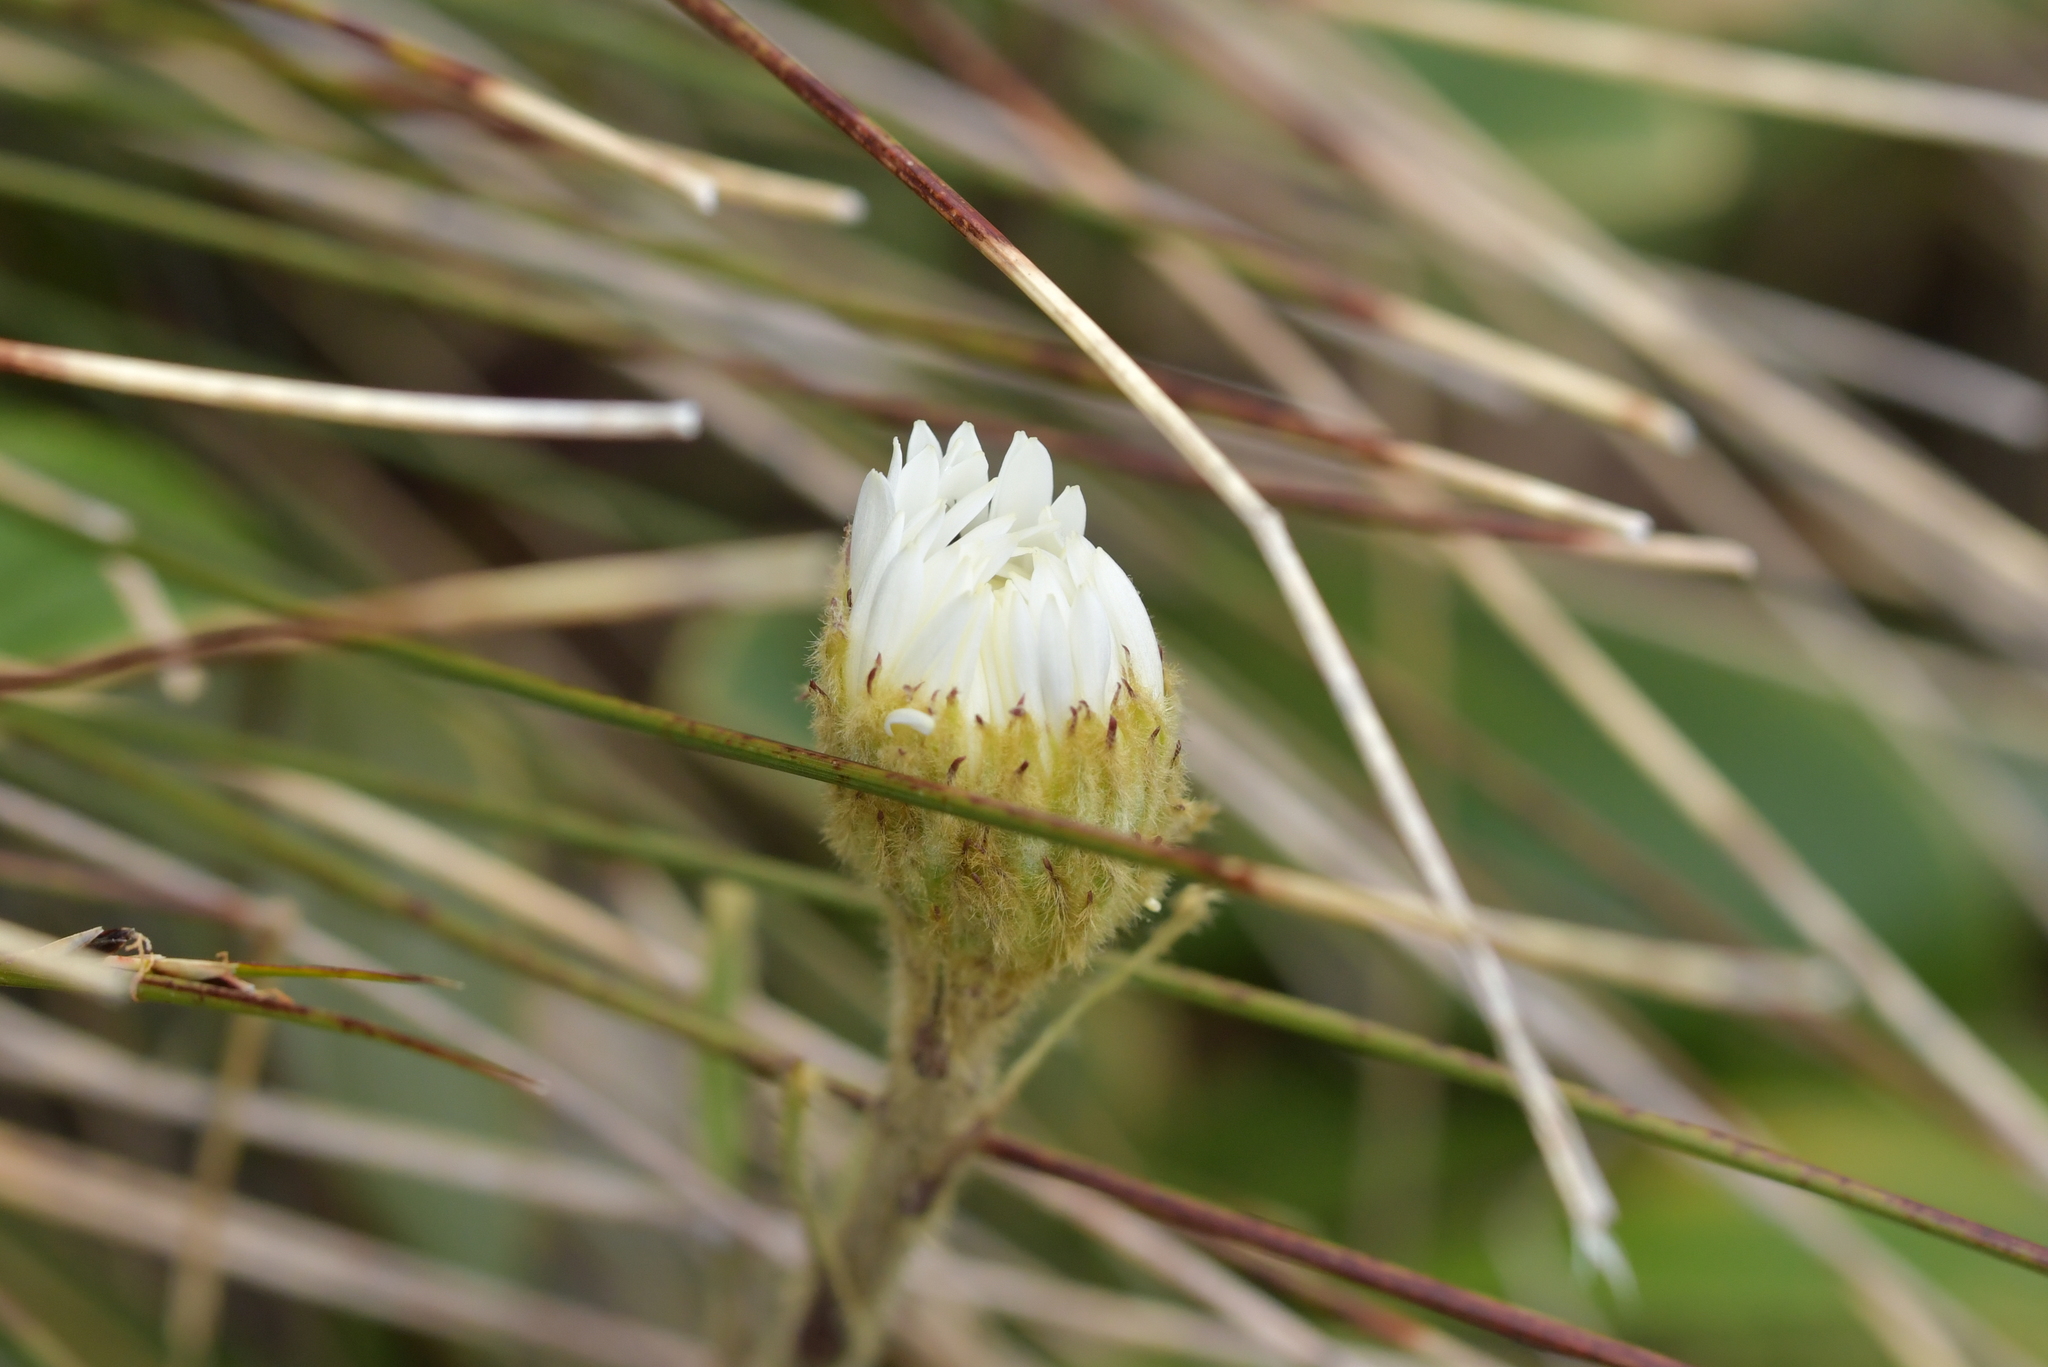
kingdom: Plantae
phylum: Tracheophyta
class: Magnoliopsida
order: Asterales
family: Asteraceae
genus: Celmisia
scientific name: Celmisia verbascifolia
